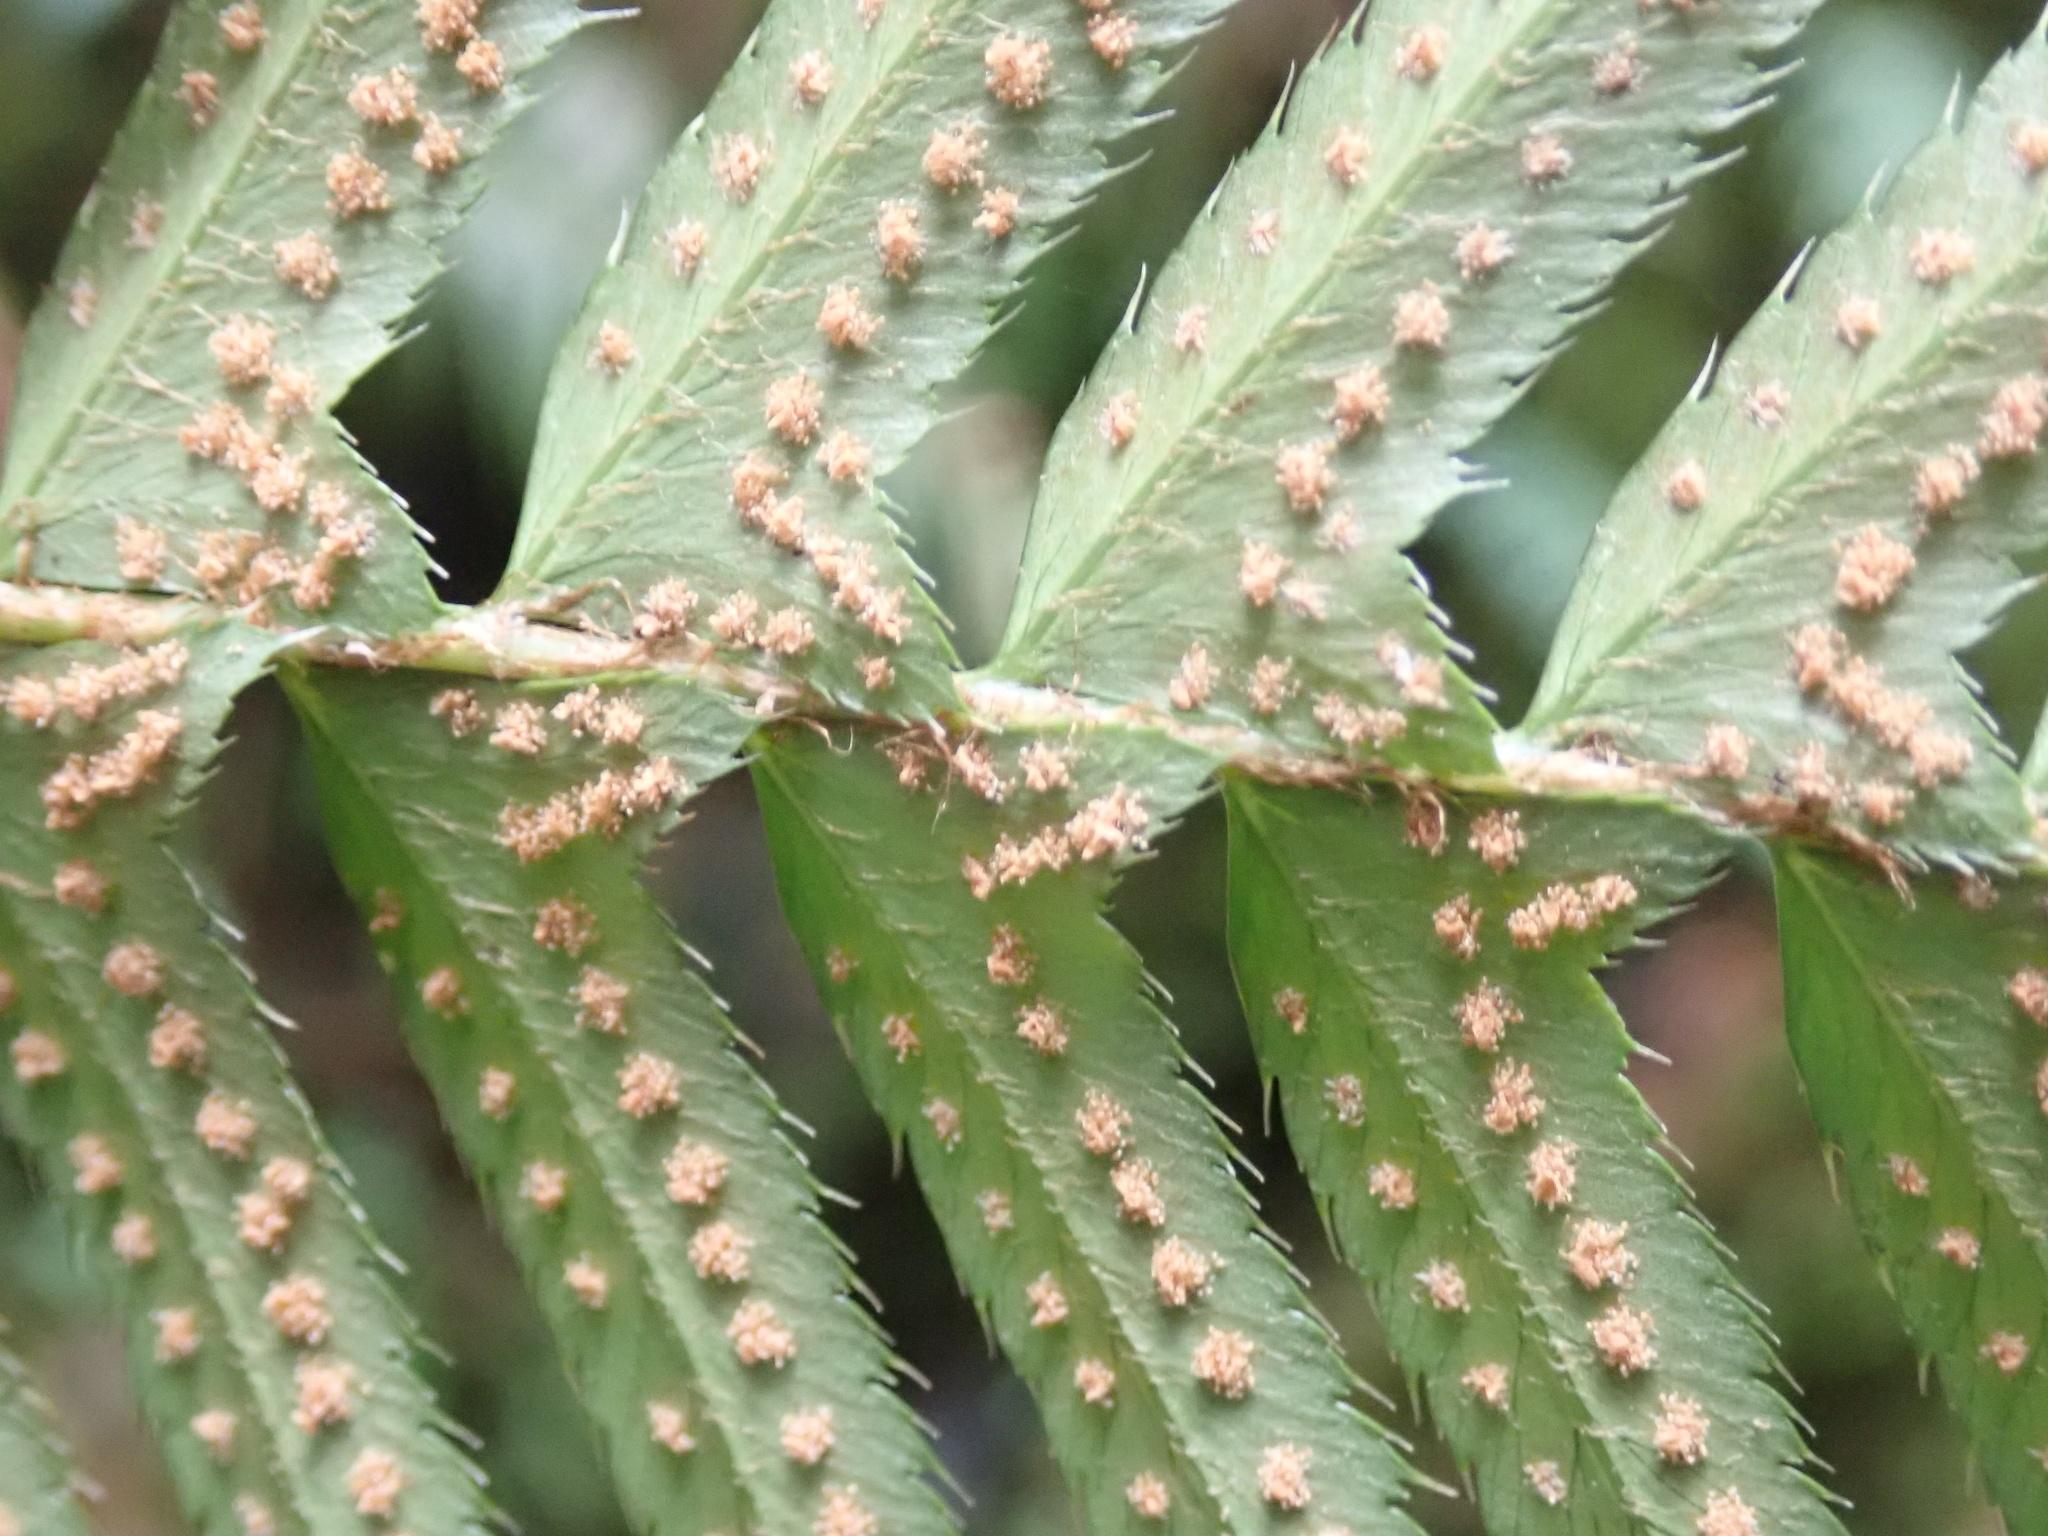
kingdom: Plantae
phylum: Tracheophyta
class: Polypodiopsida
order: Polypodiales
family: Dryopteridaceae
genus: Polystichum
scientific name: Polystichum munitum
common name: Western sword-fern
